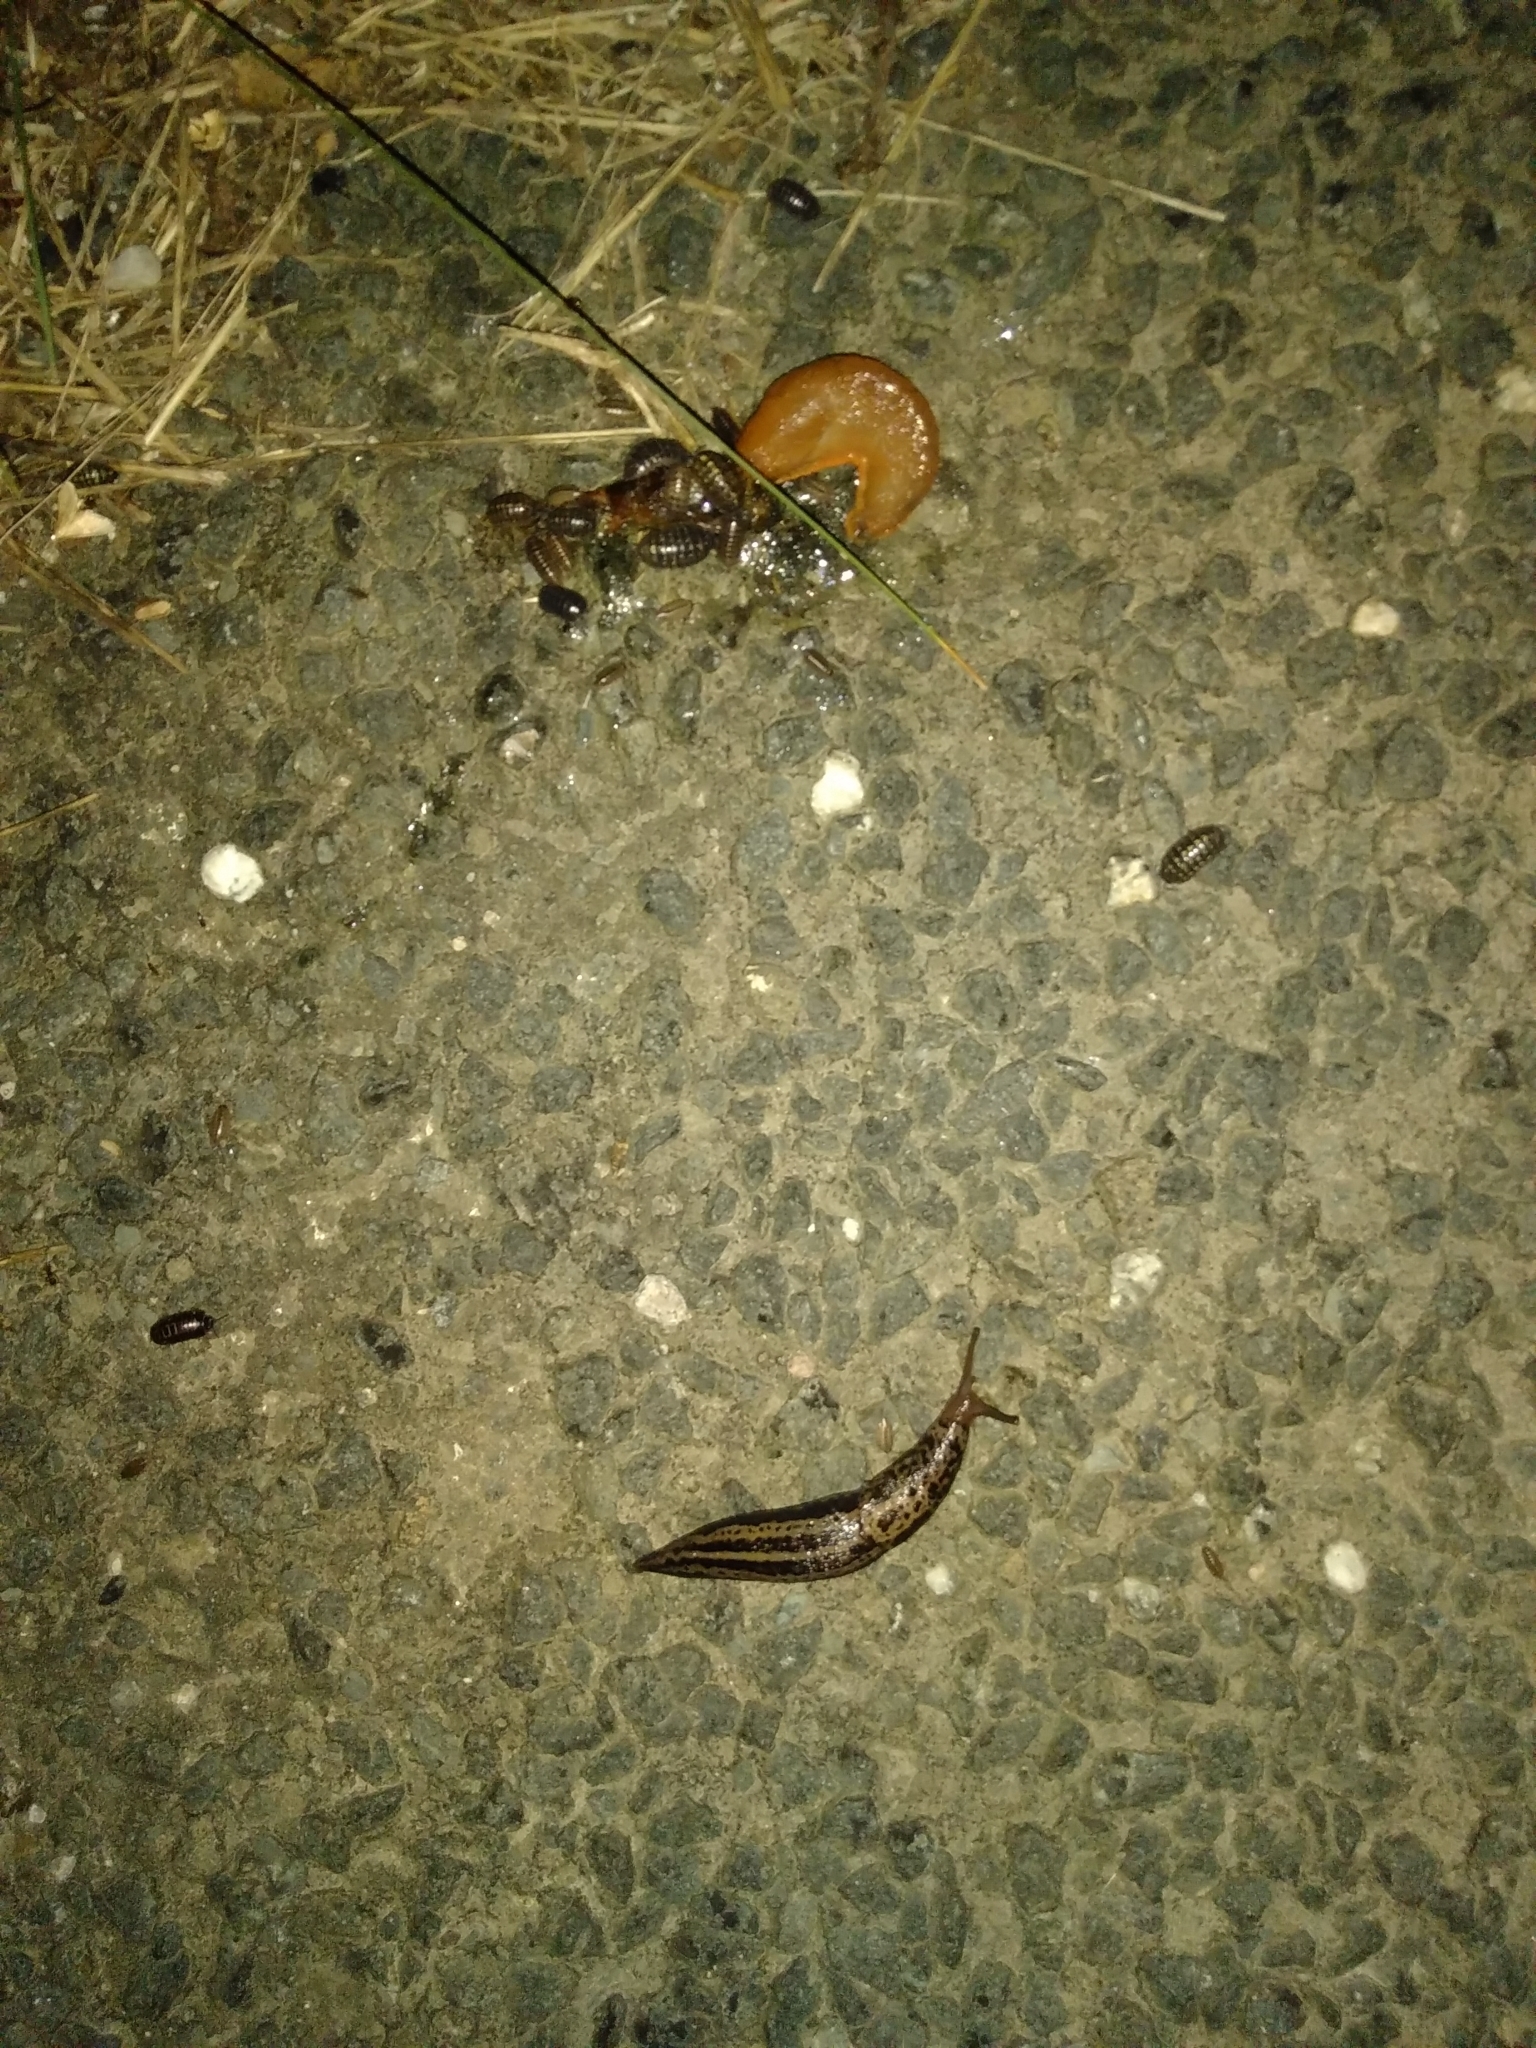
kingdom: Animalia
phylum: Mollusca
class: Gastropoda
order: Stylommatophora
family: Limacidae
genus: Limax
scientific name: Limax maximus
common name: Great grey slug
